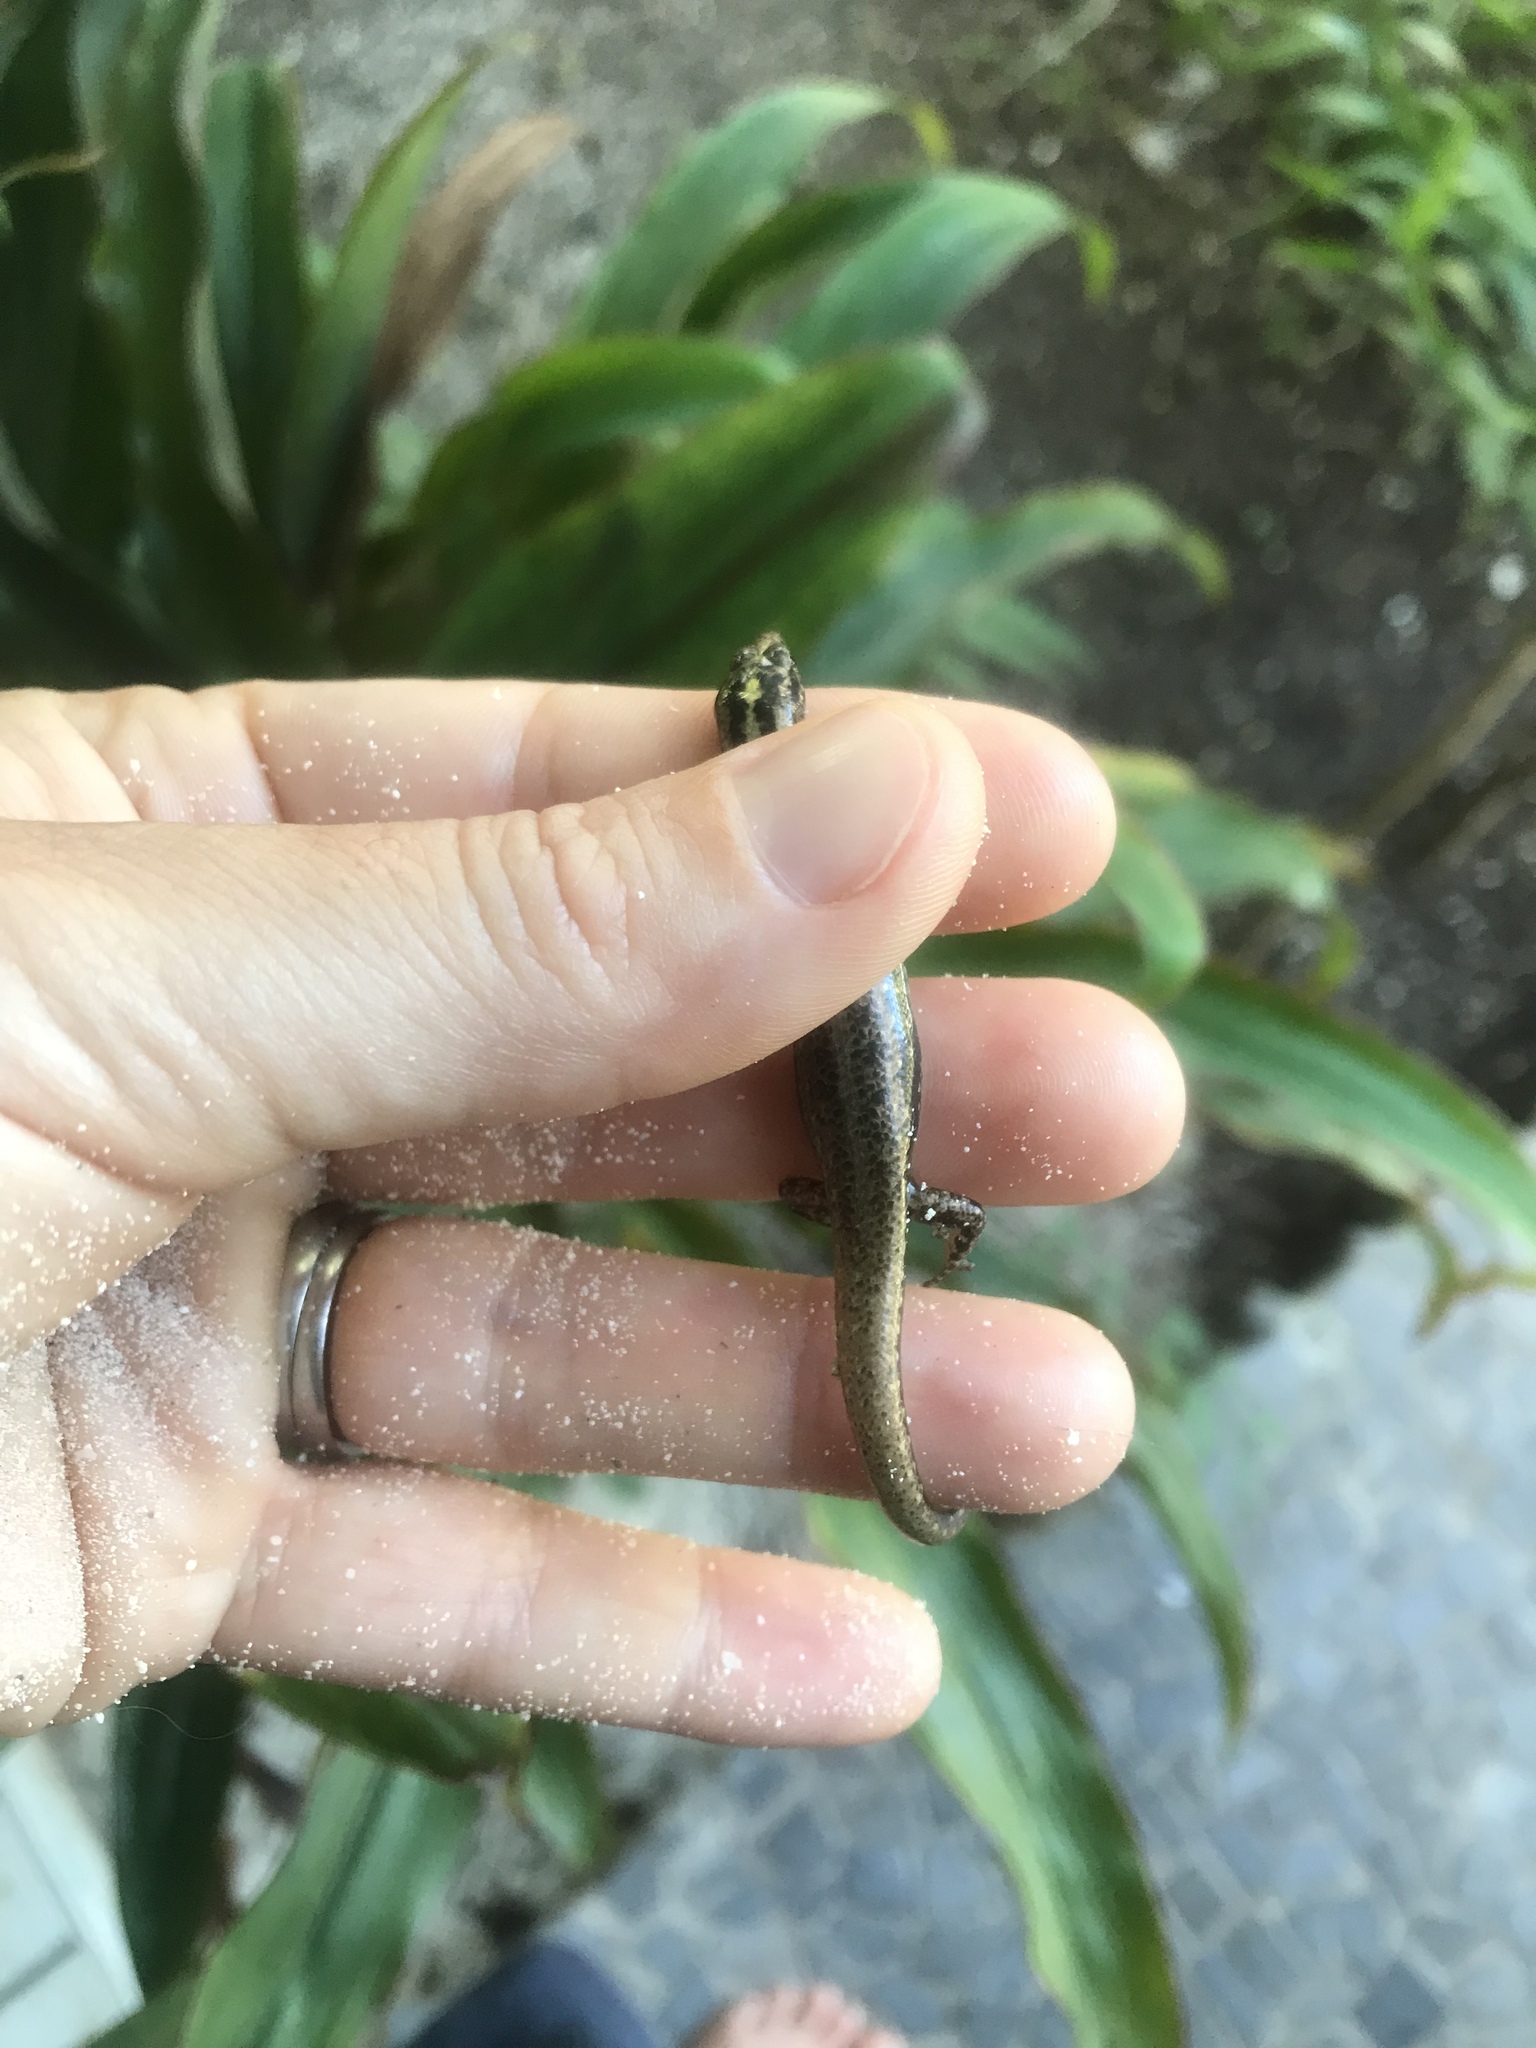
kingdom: Animalia
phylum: Chordata
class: Squamata
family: Scincidae
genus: Ornithuroscincus
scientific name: Ornithuroscincus noctua
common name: Moth skink
